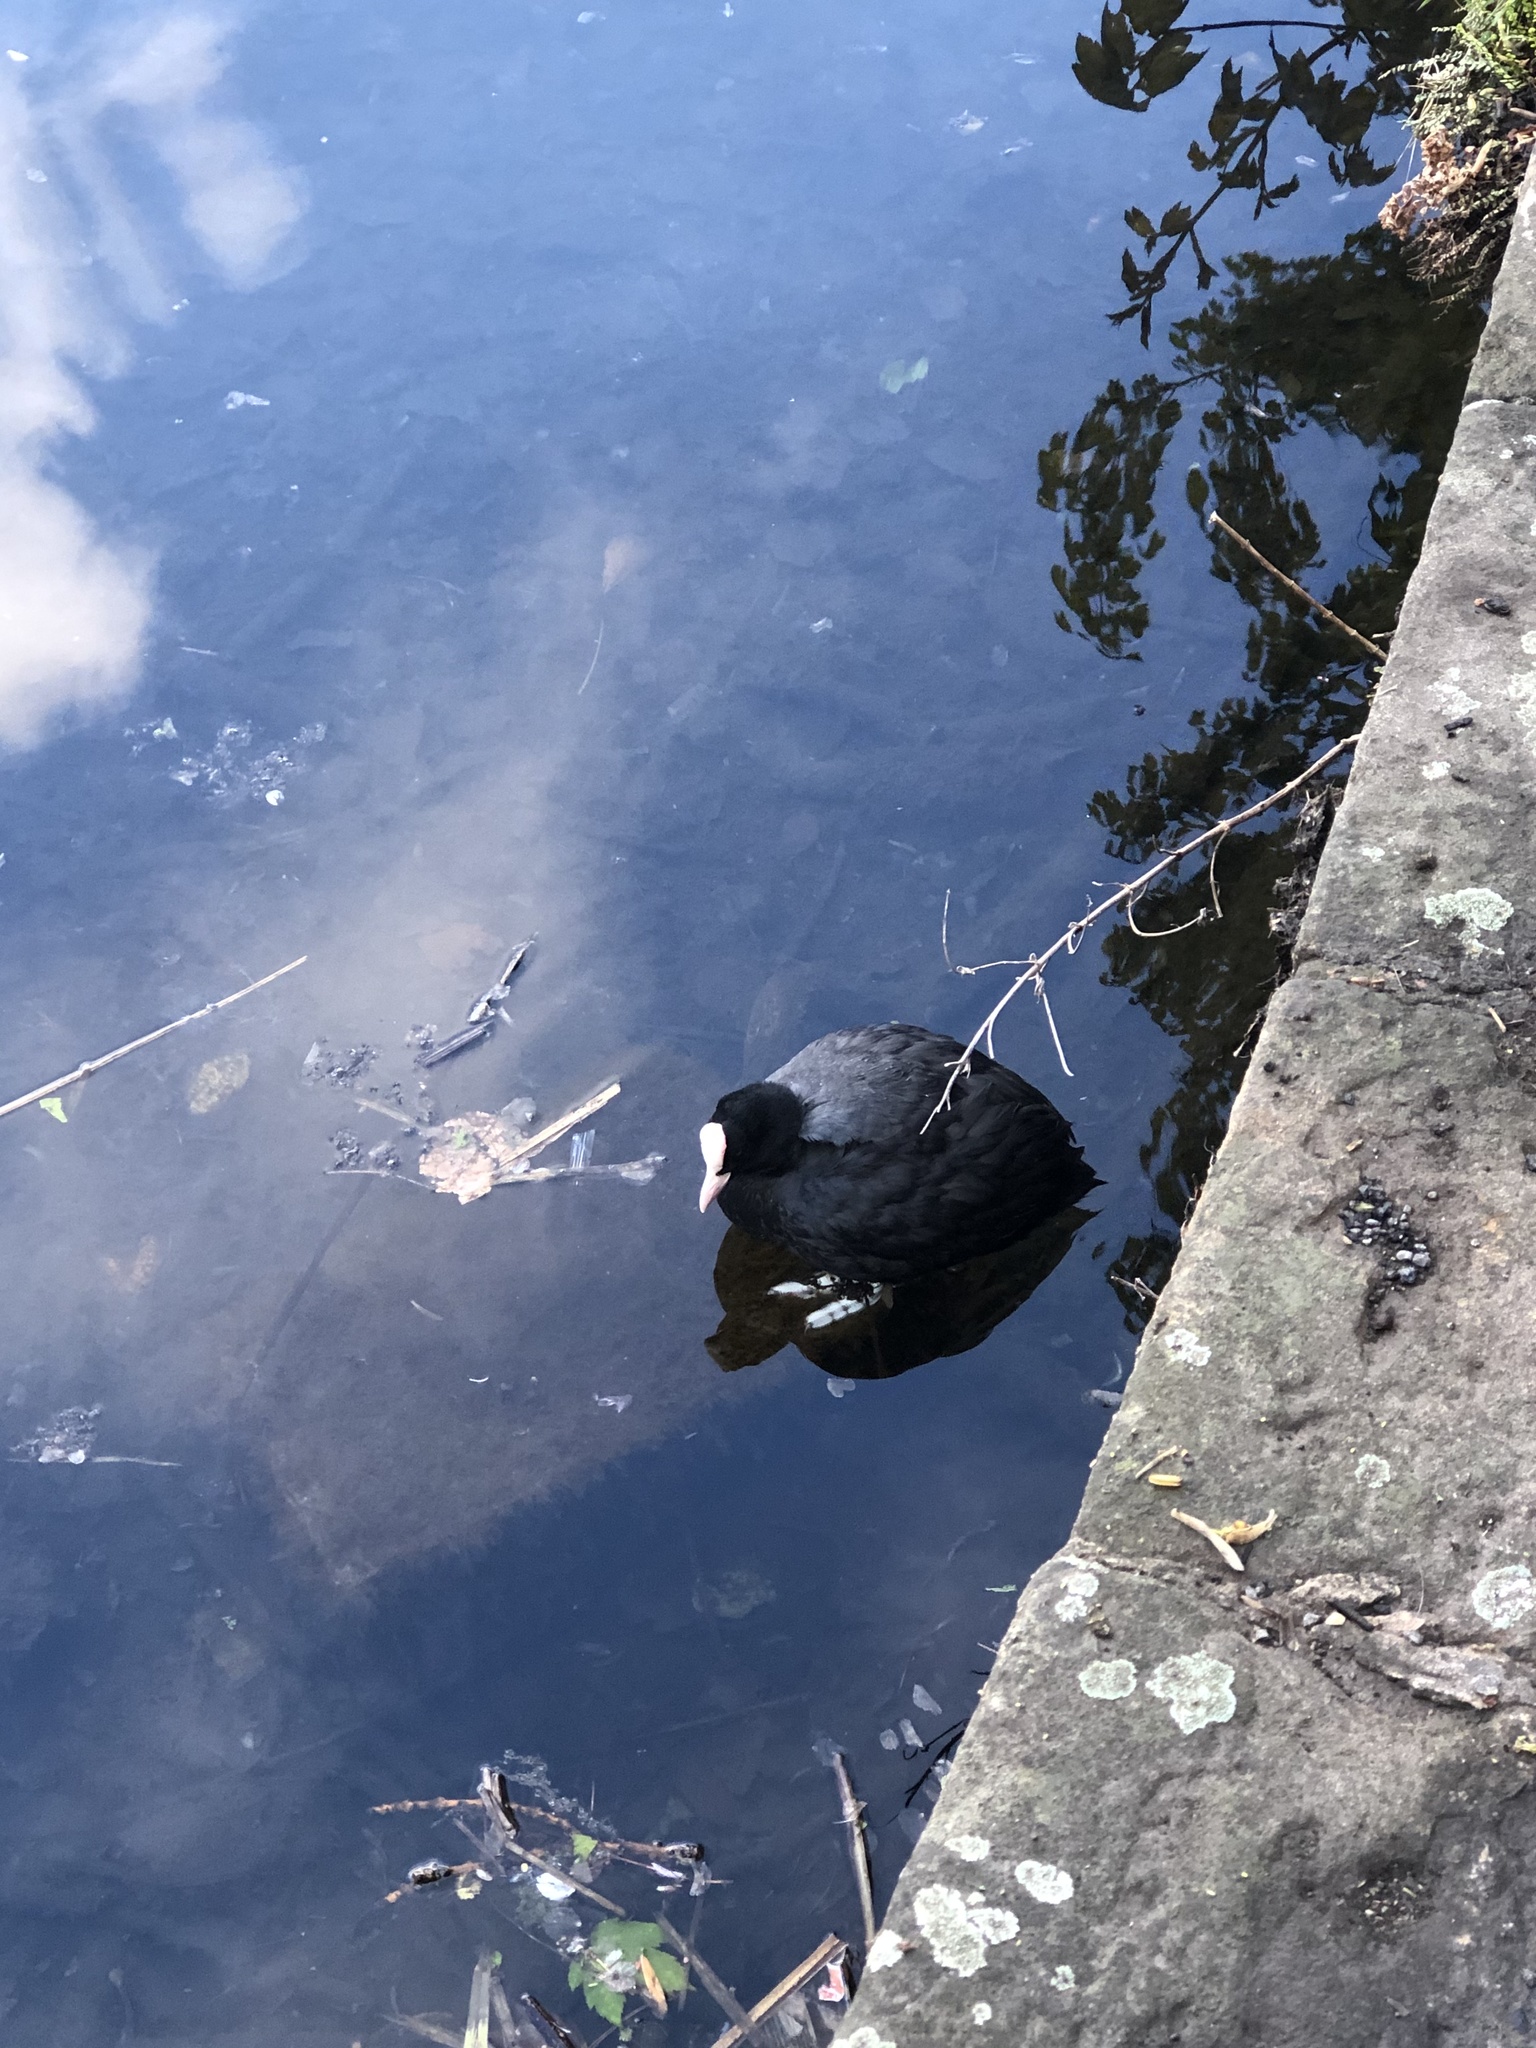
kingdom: Animalia
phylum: Chordata
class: Aves
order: Gruiformes
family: Rallidae
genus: Fulica
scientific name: Fulica atra
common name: Eurasian coot
